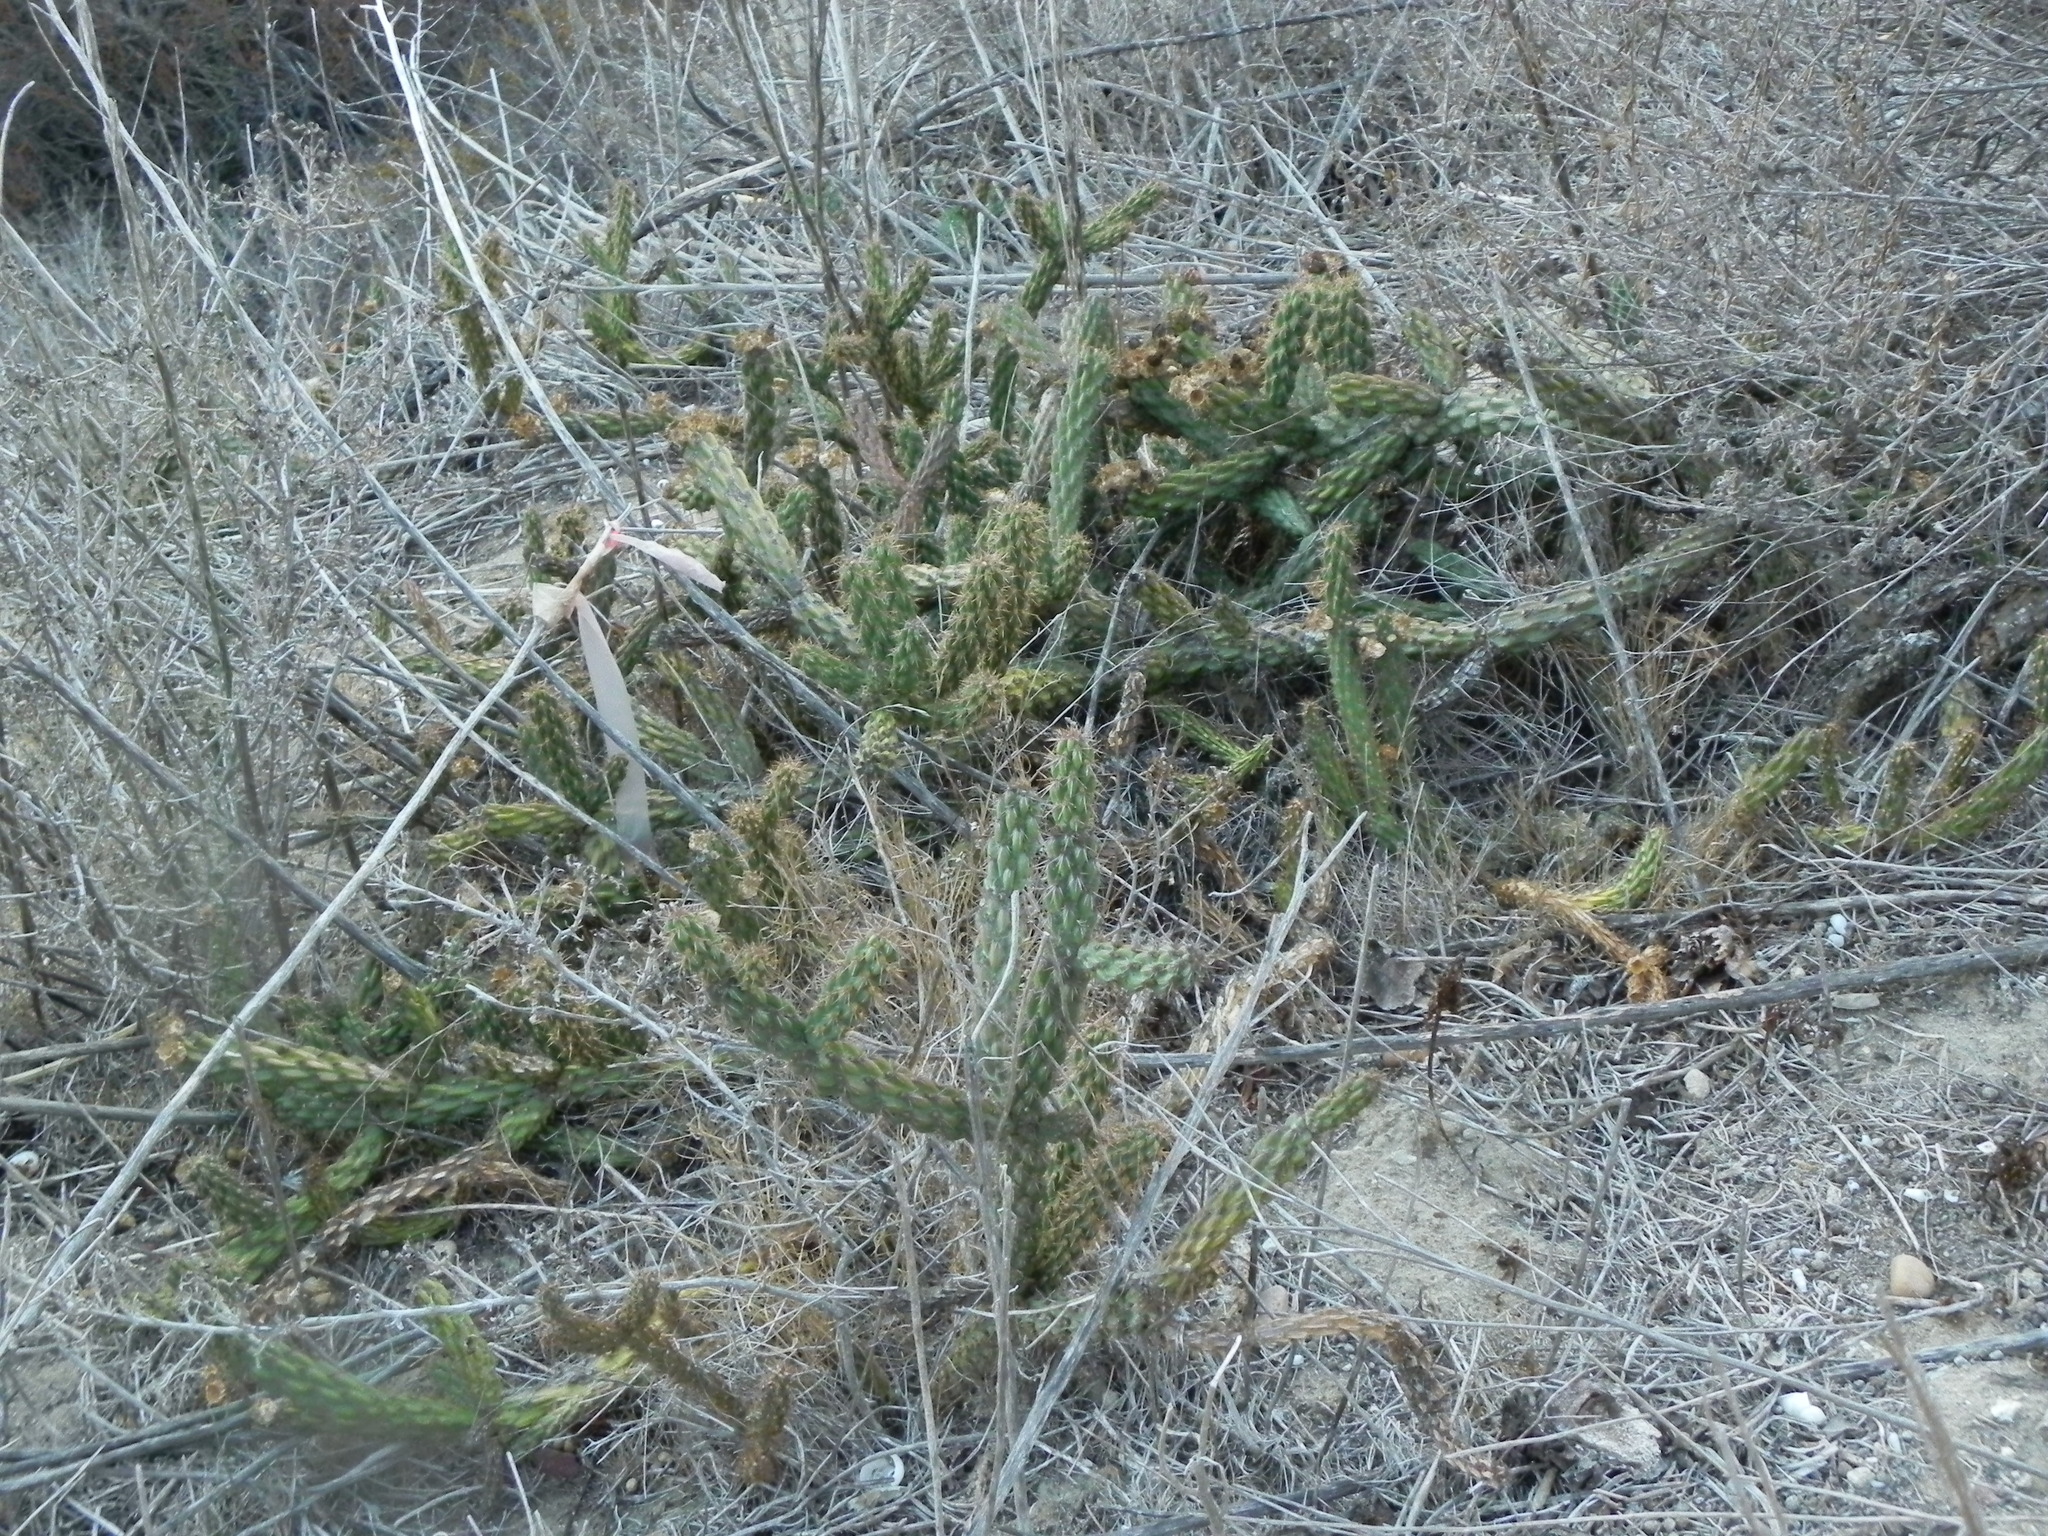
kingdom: Plantae
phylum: Tracheophyta
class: Magnoliopsida
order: Caryophyllales
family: Cactaceae
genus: Cylindropuntia
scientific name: Cylindropuntia californica
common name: Snake cholla
